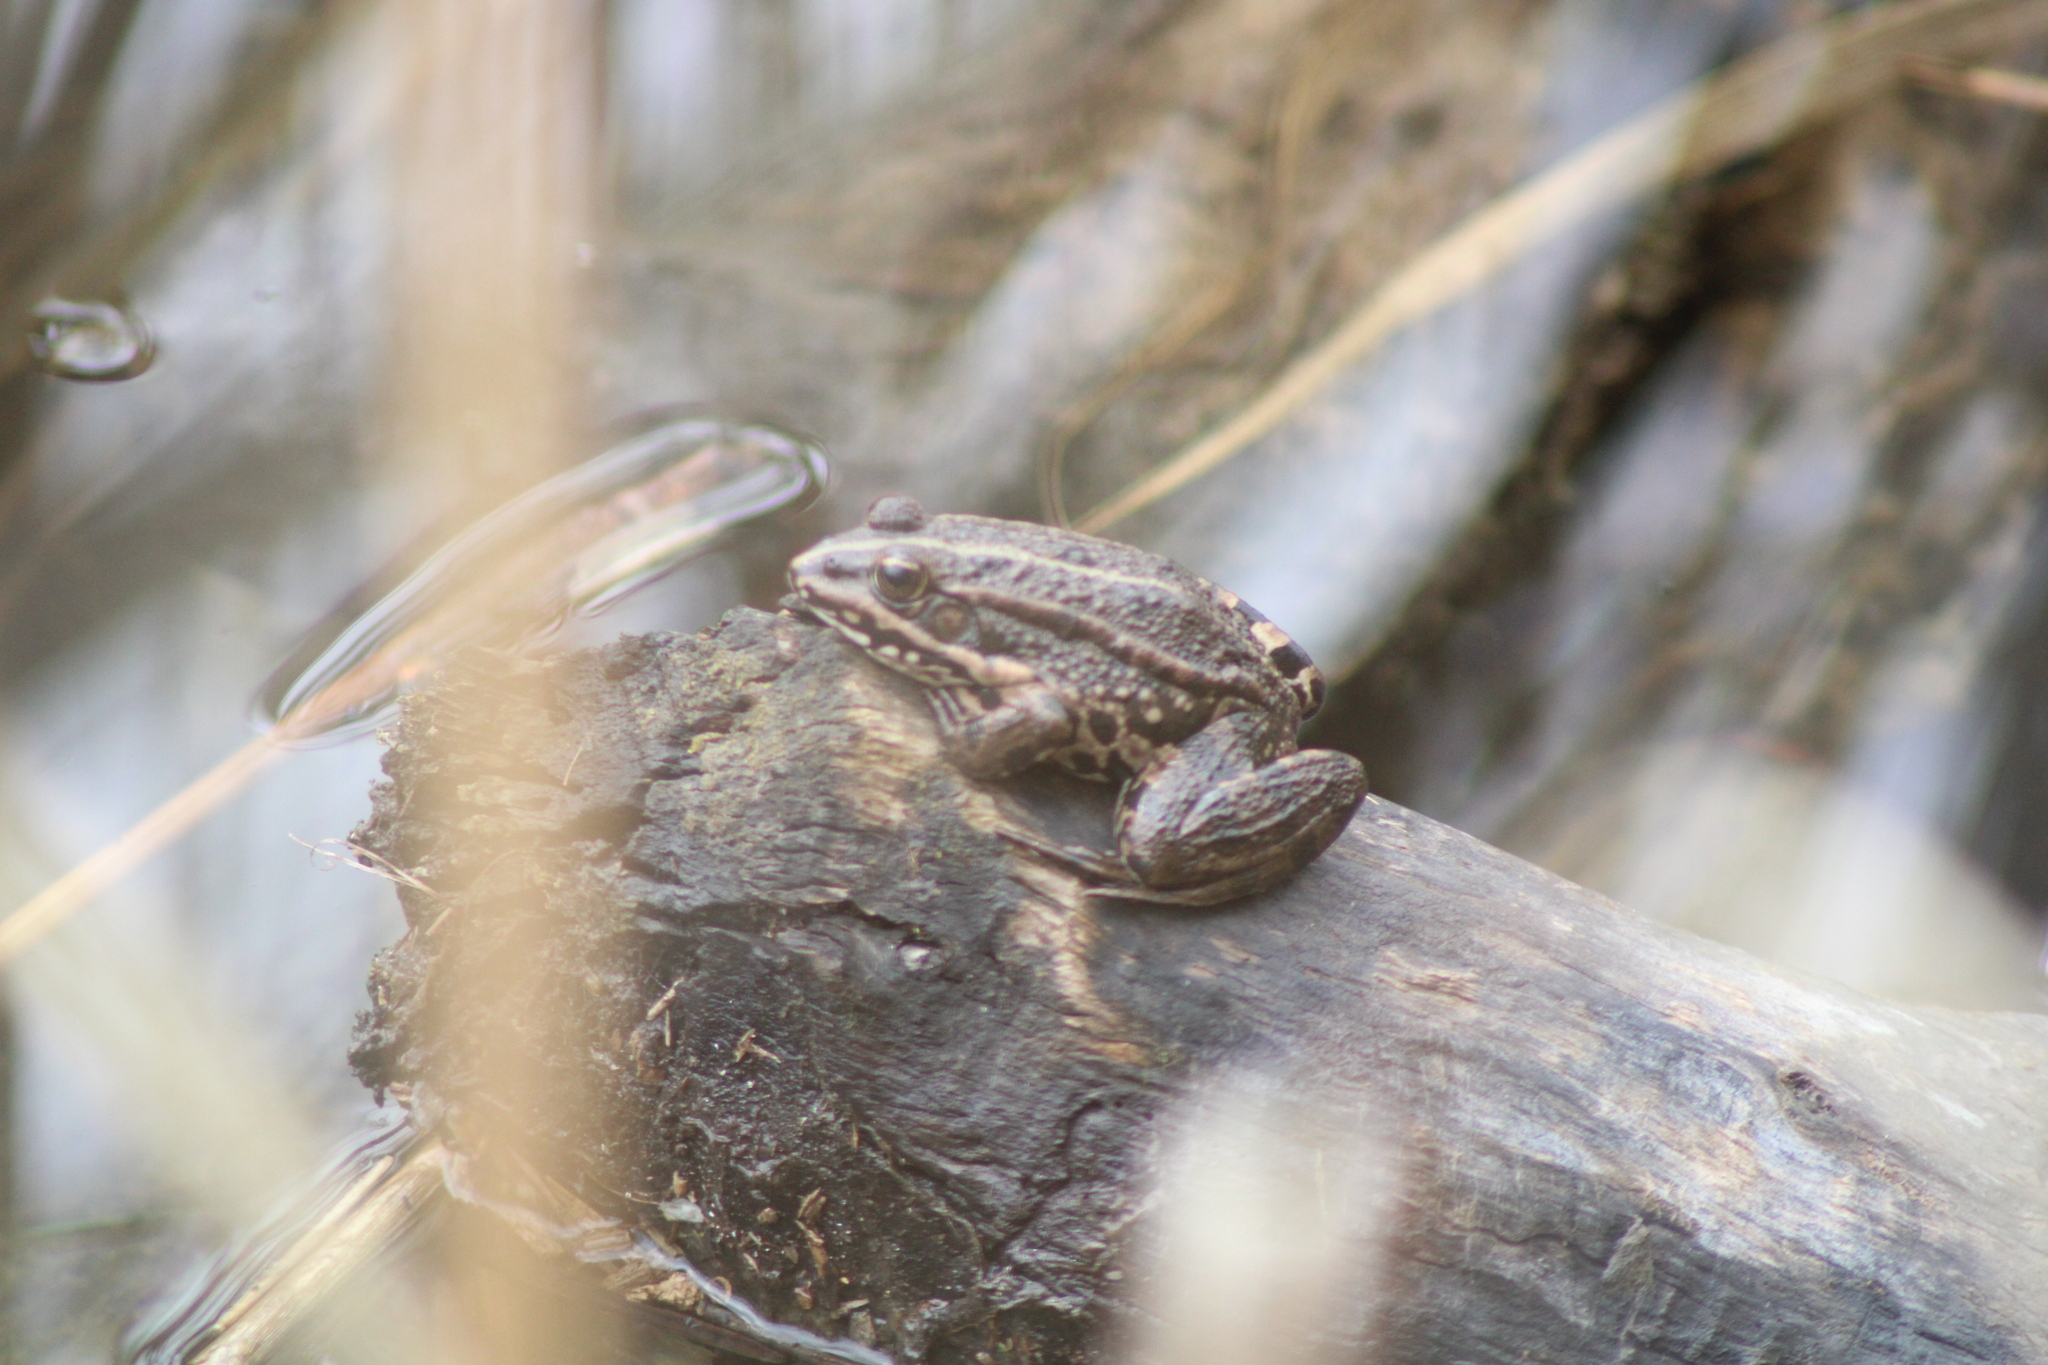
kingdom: Animalia
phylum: Chordata
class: Amphibia
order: Anura
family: Ranidae
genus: Pelophylax
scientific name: Pelophylax
